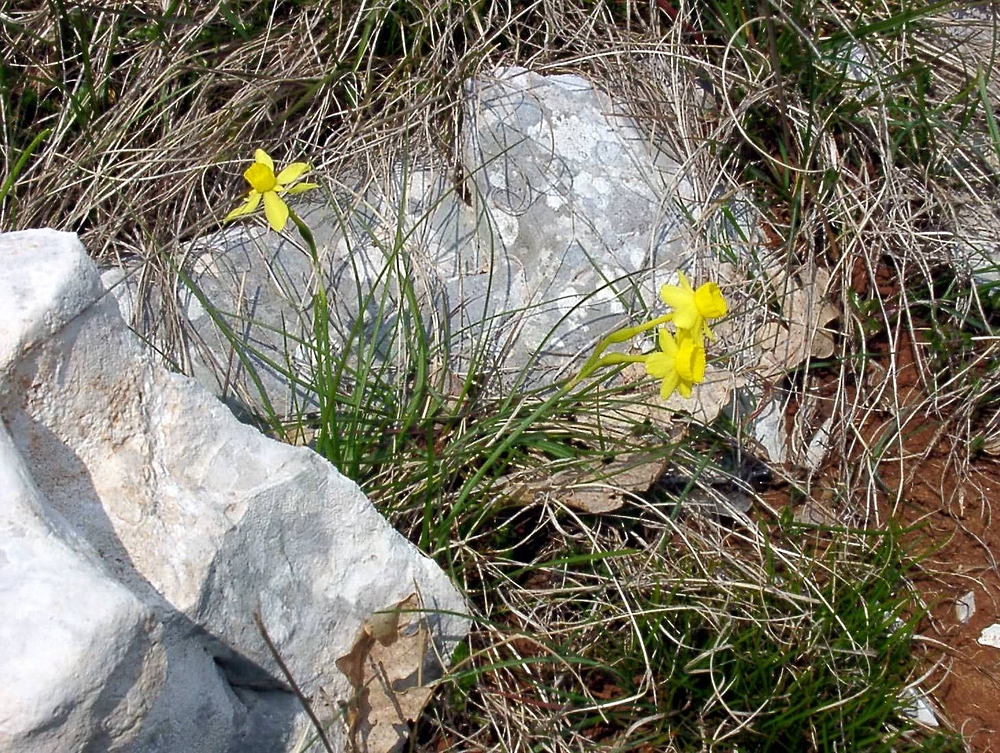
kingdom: Plantae
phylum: Tracheophyta
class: Liliopsida
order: Asparagales
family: Amaryllidaceae
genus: Narcissus
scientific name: Narcissus assoanus
